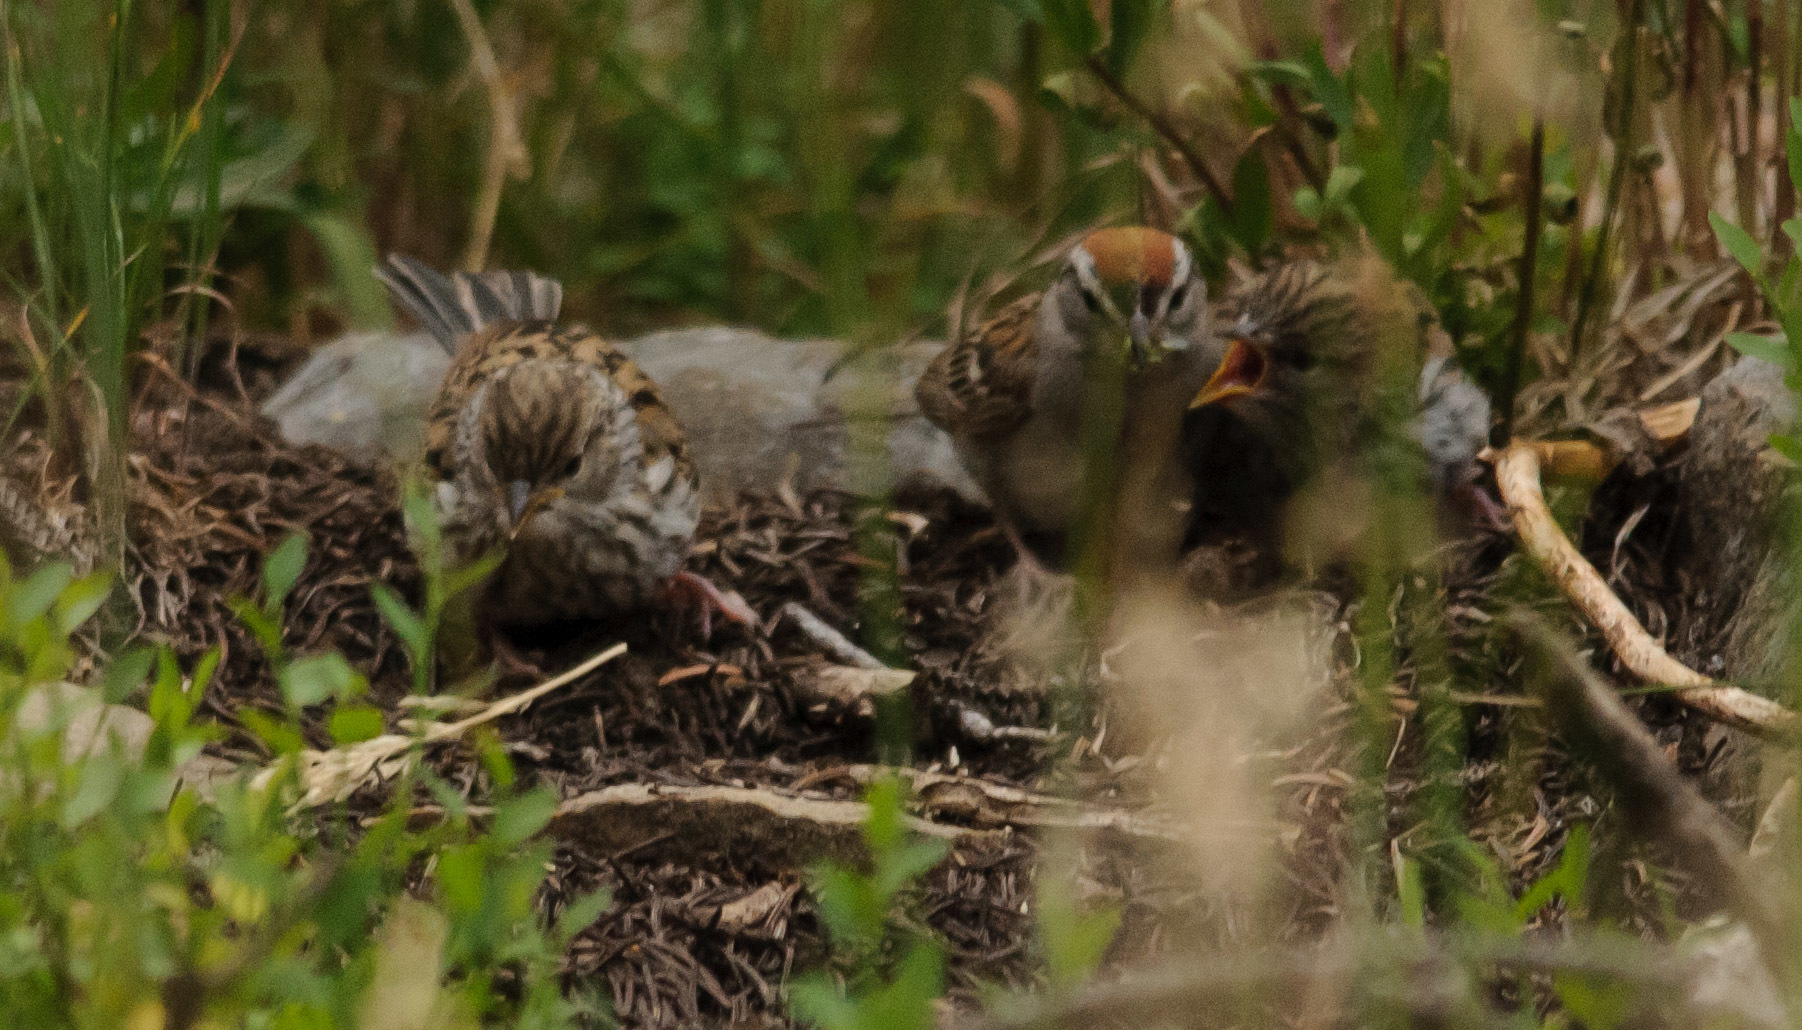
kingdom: Animalia
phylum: Chordata
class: Aves
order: Passeriformes
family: Passerellidae
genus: Spizella
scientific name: Spizella passerina
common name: Chipping sparrow
